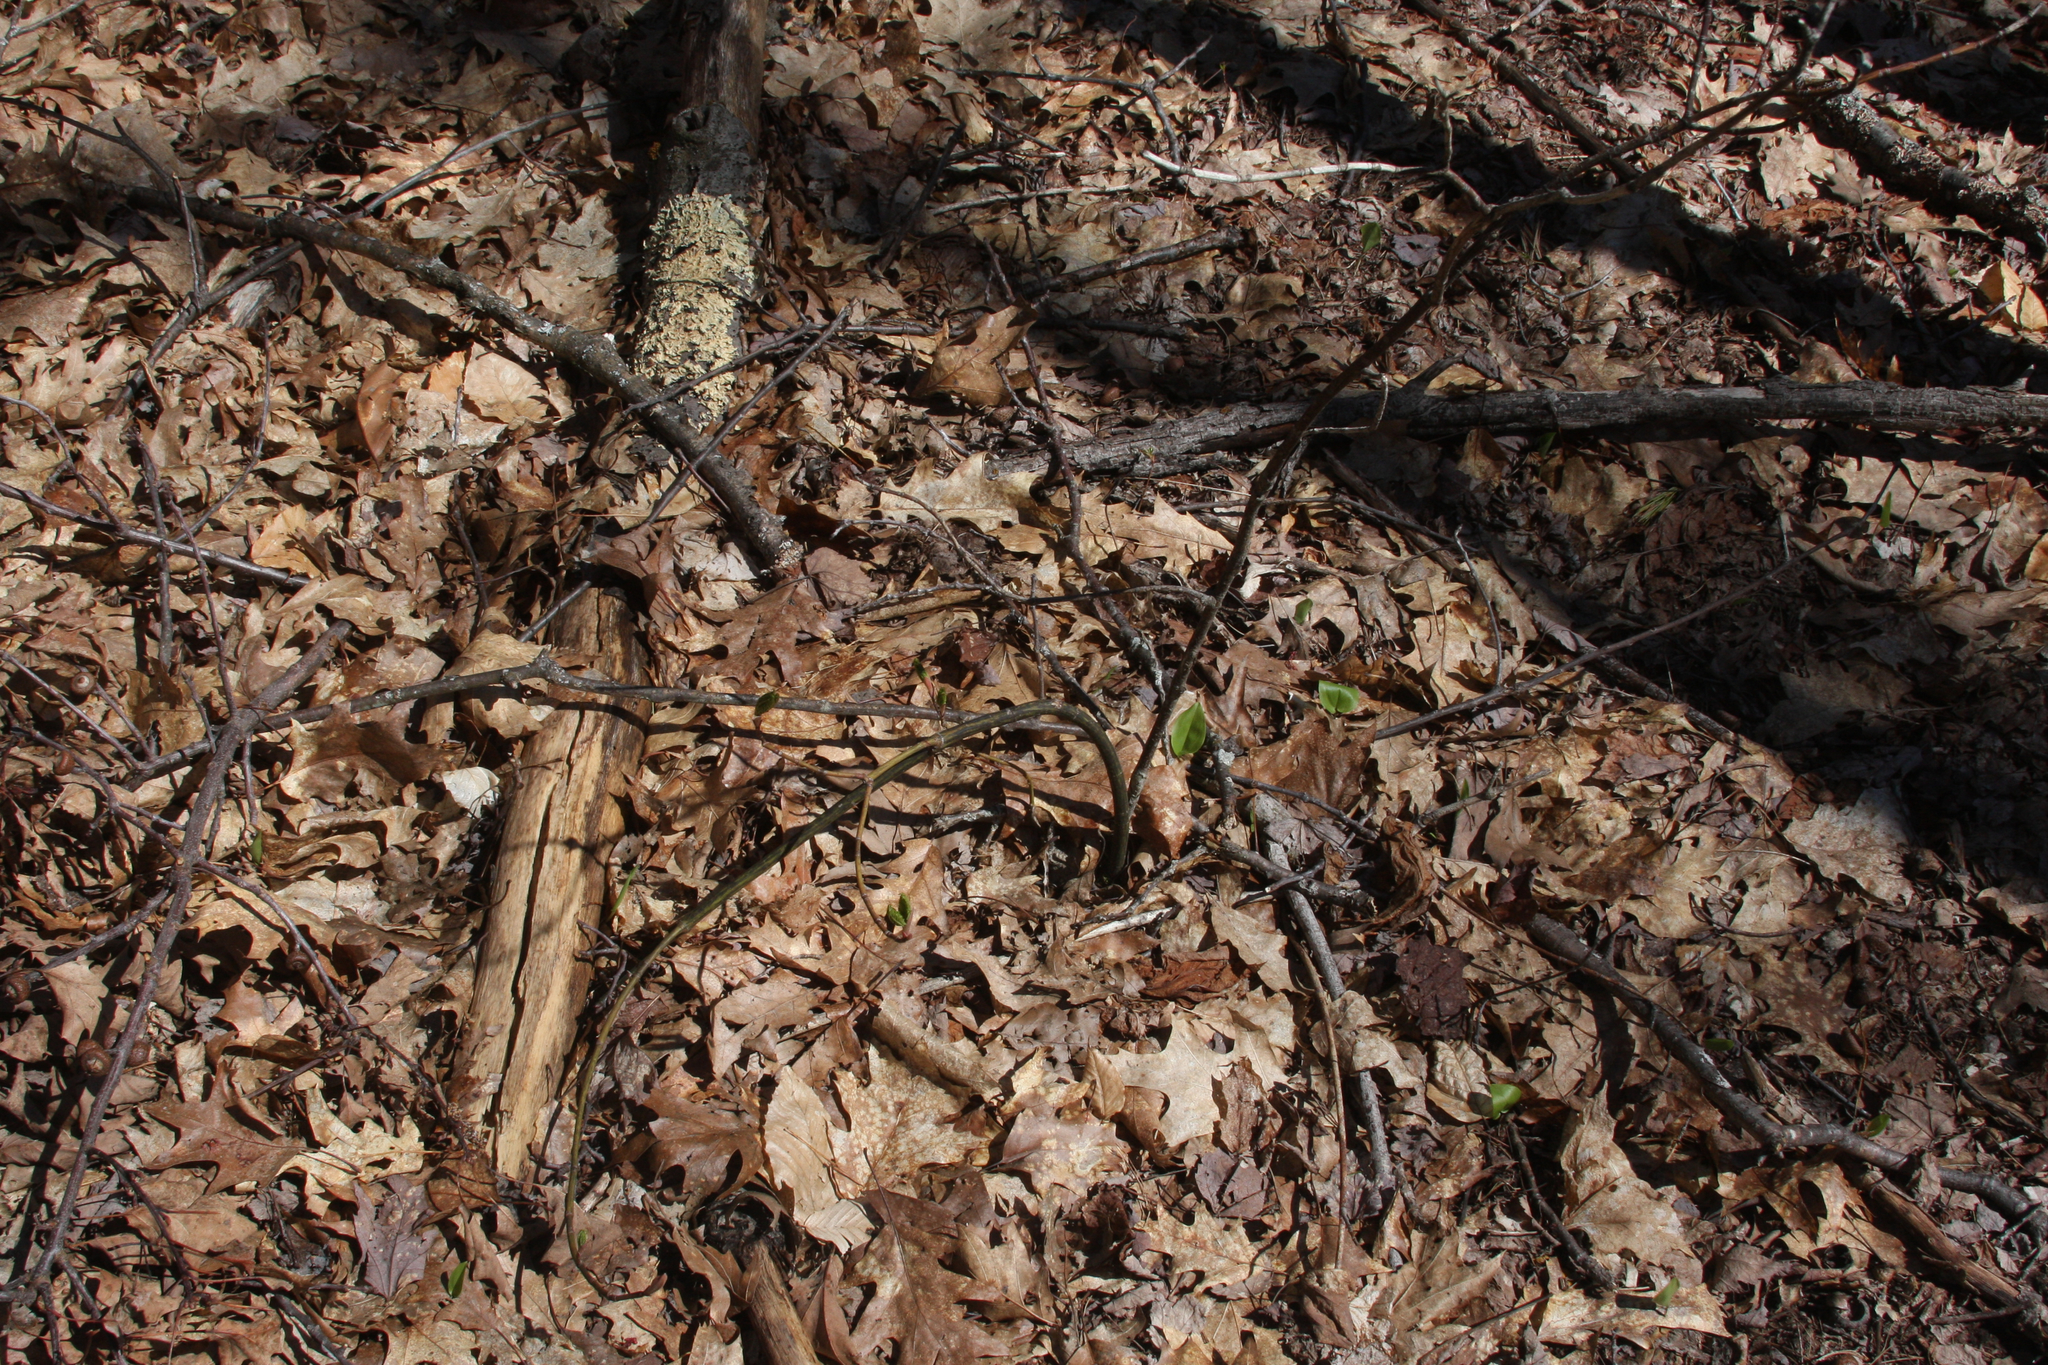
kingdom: Plantae
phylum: Tracheophyta
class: Magnoliopsida
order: Sapindales
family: Sapindaceae
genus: Acer
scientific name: Acer pensylvanicum
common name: Moosewood
